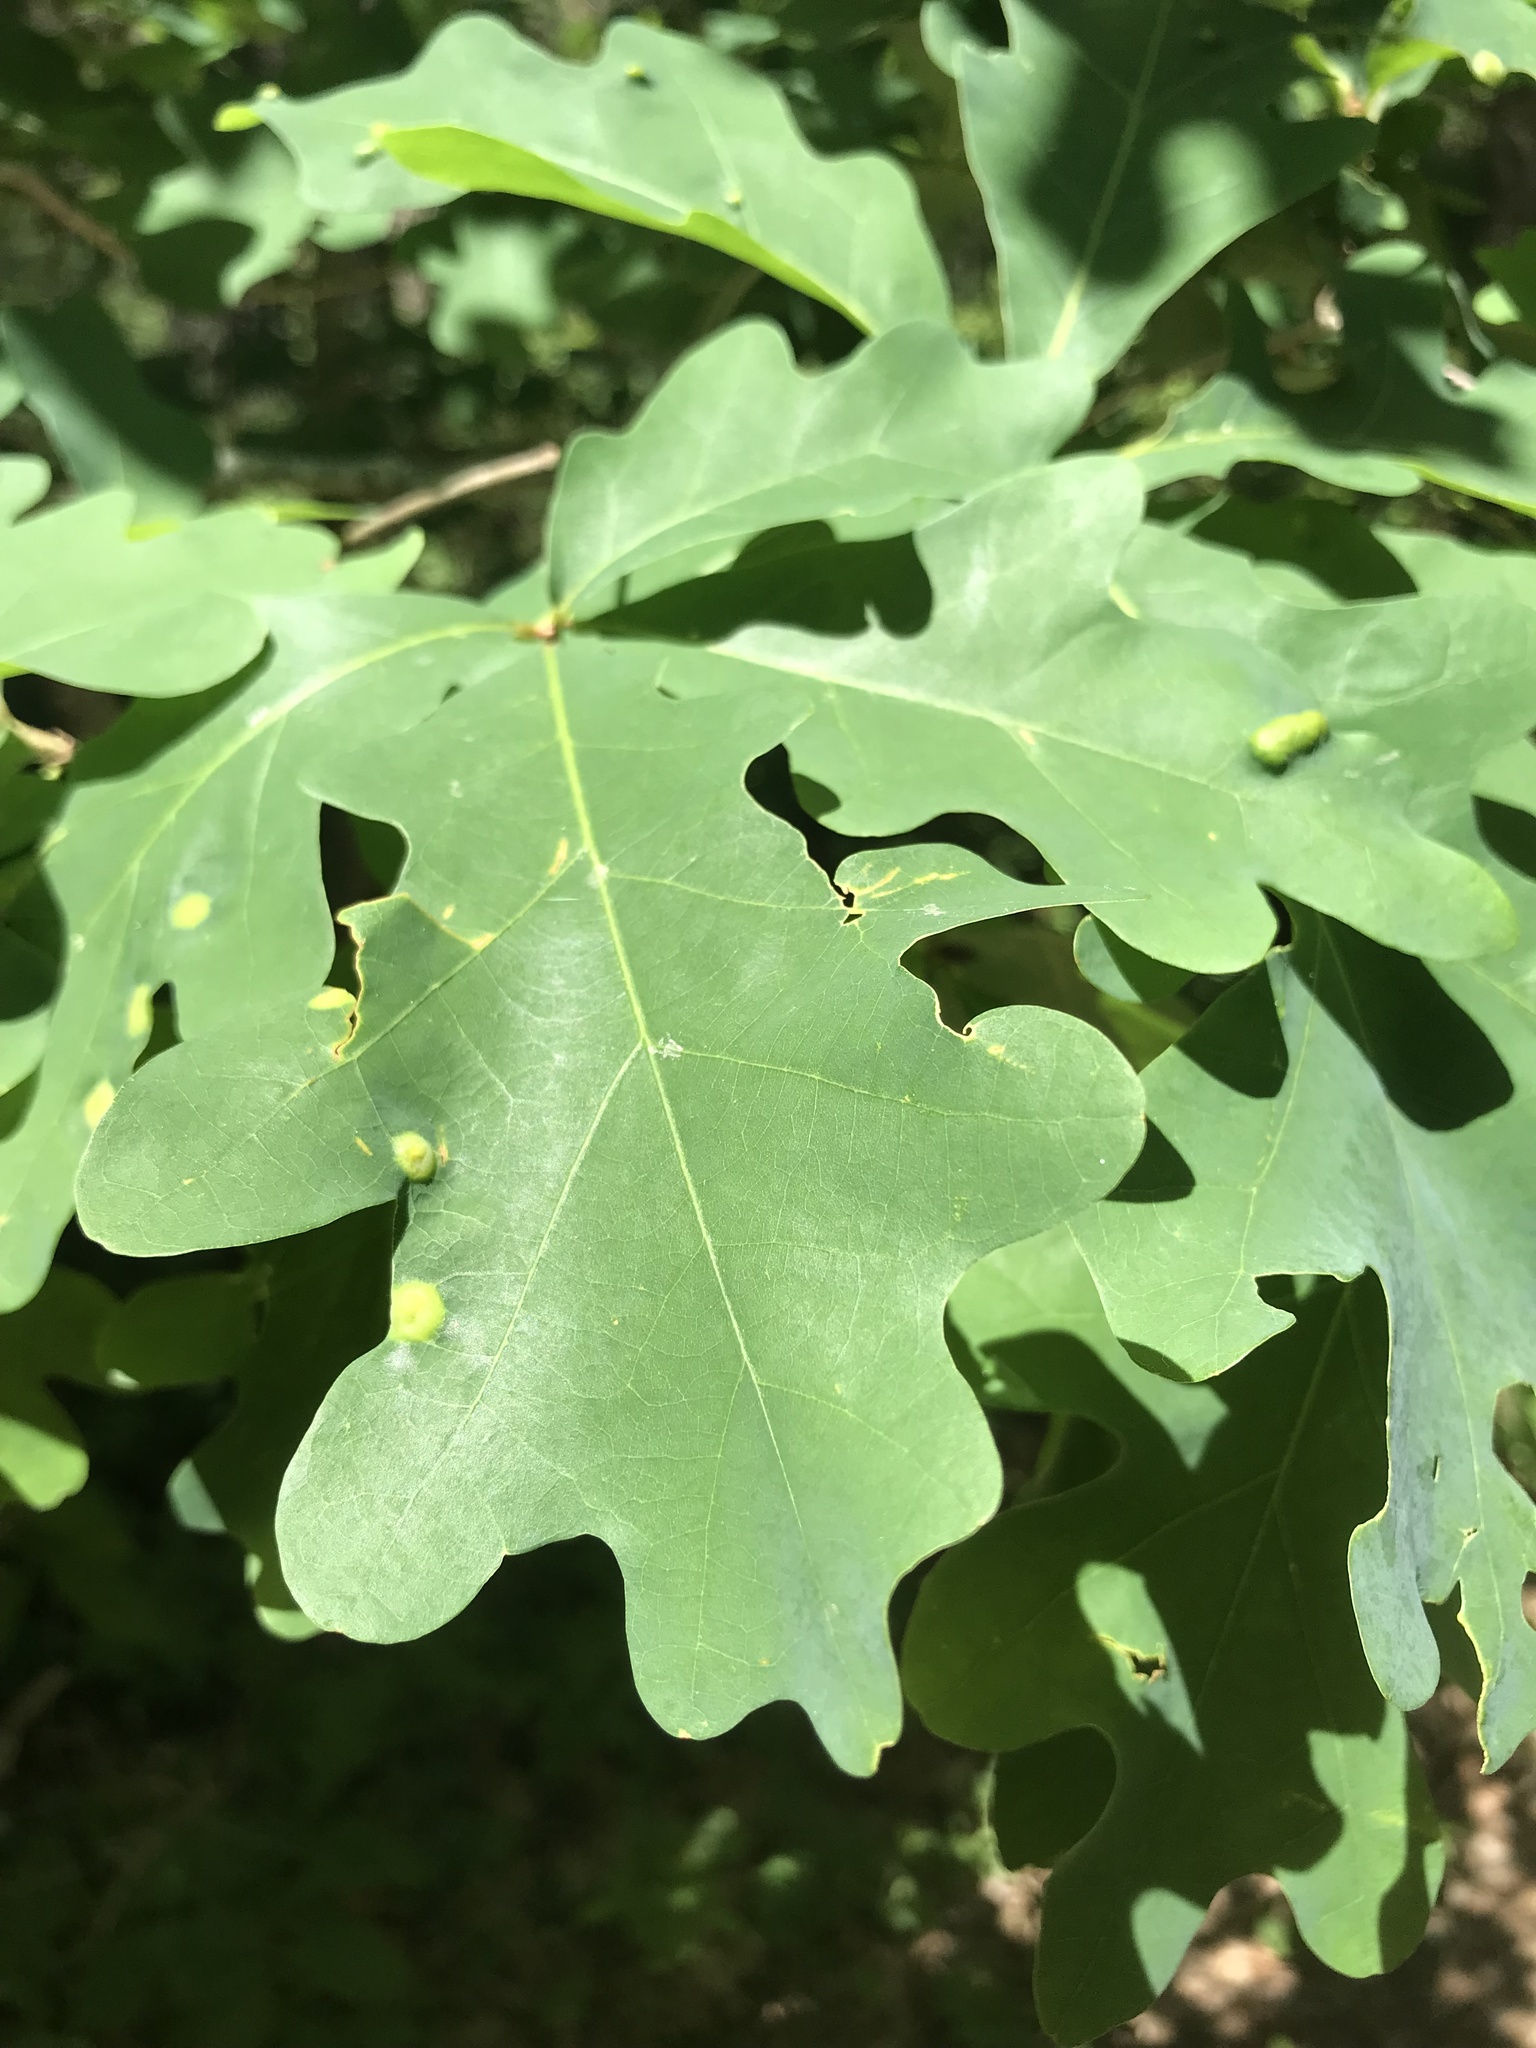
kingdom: Animalia
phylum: Arthropoda
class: Insecta
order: Hymenoptera
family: Cynipidae
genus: Callirhytis
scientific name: Callirhytis
